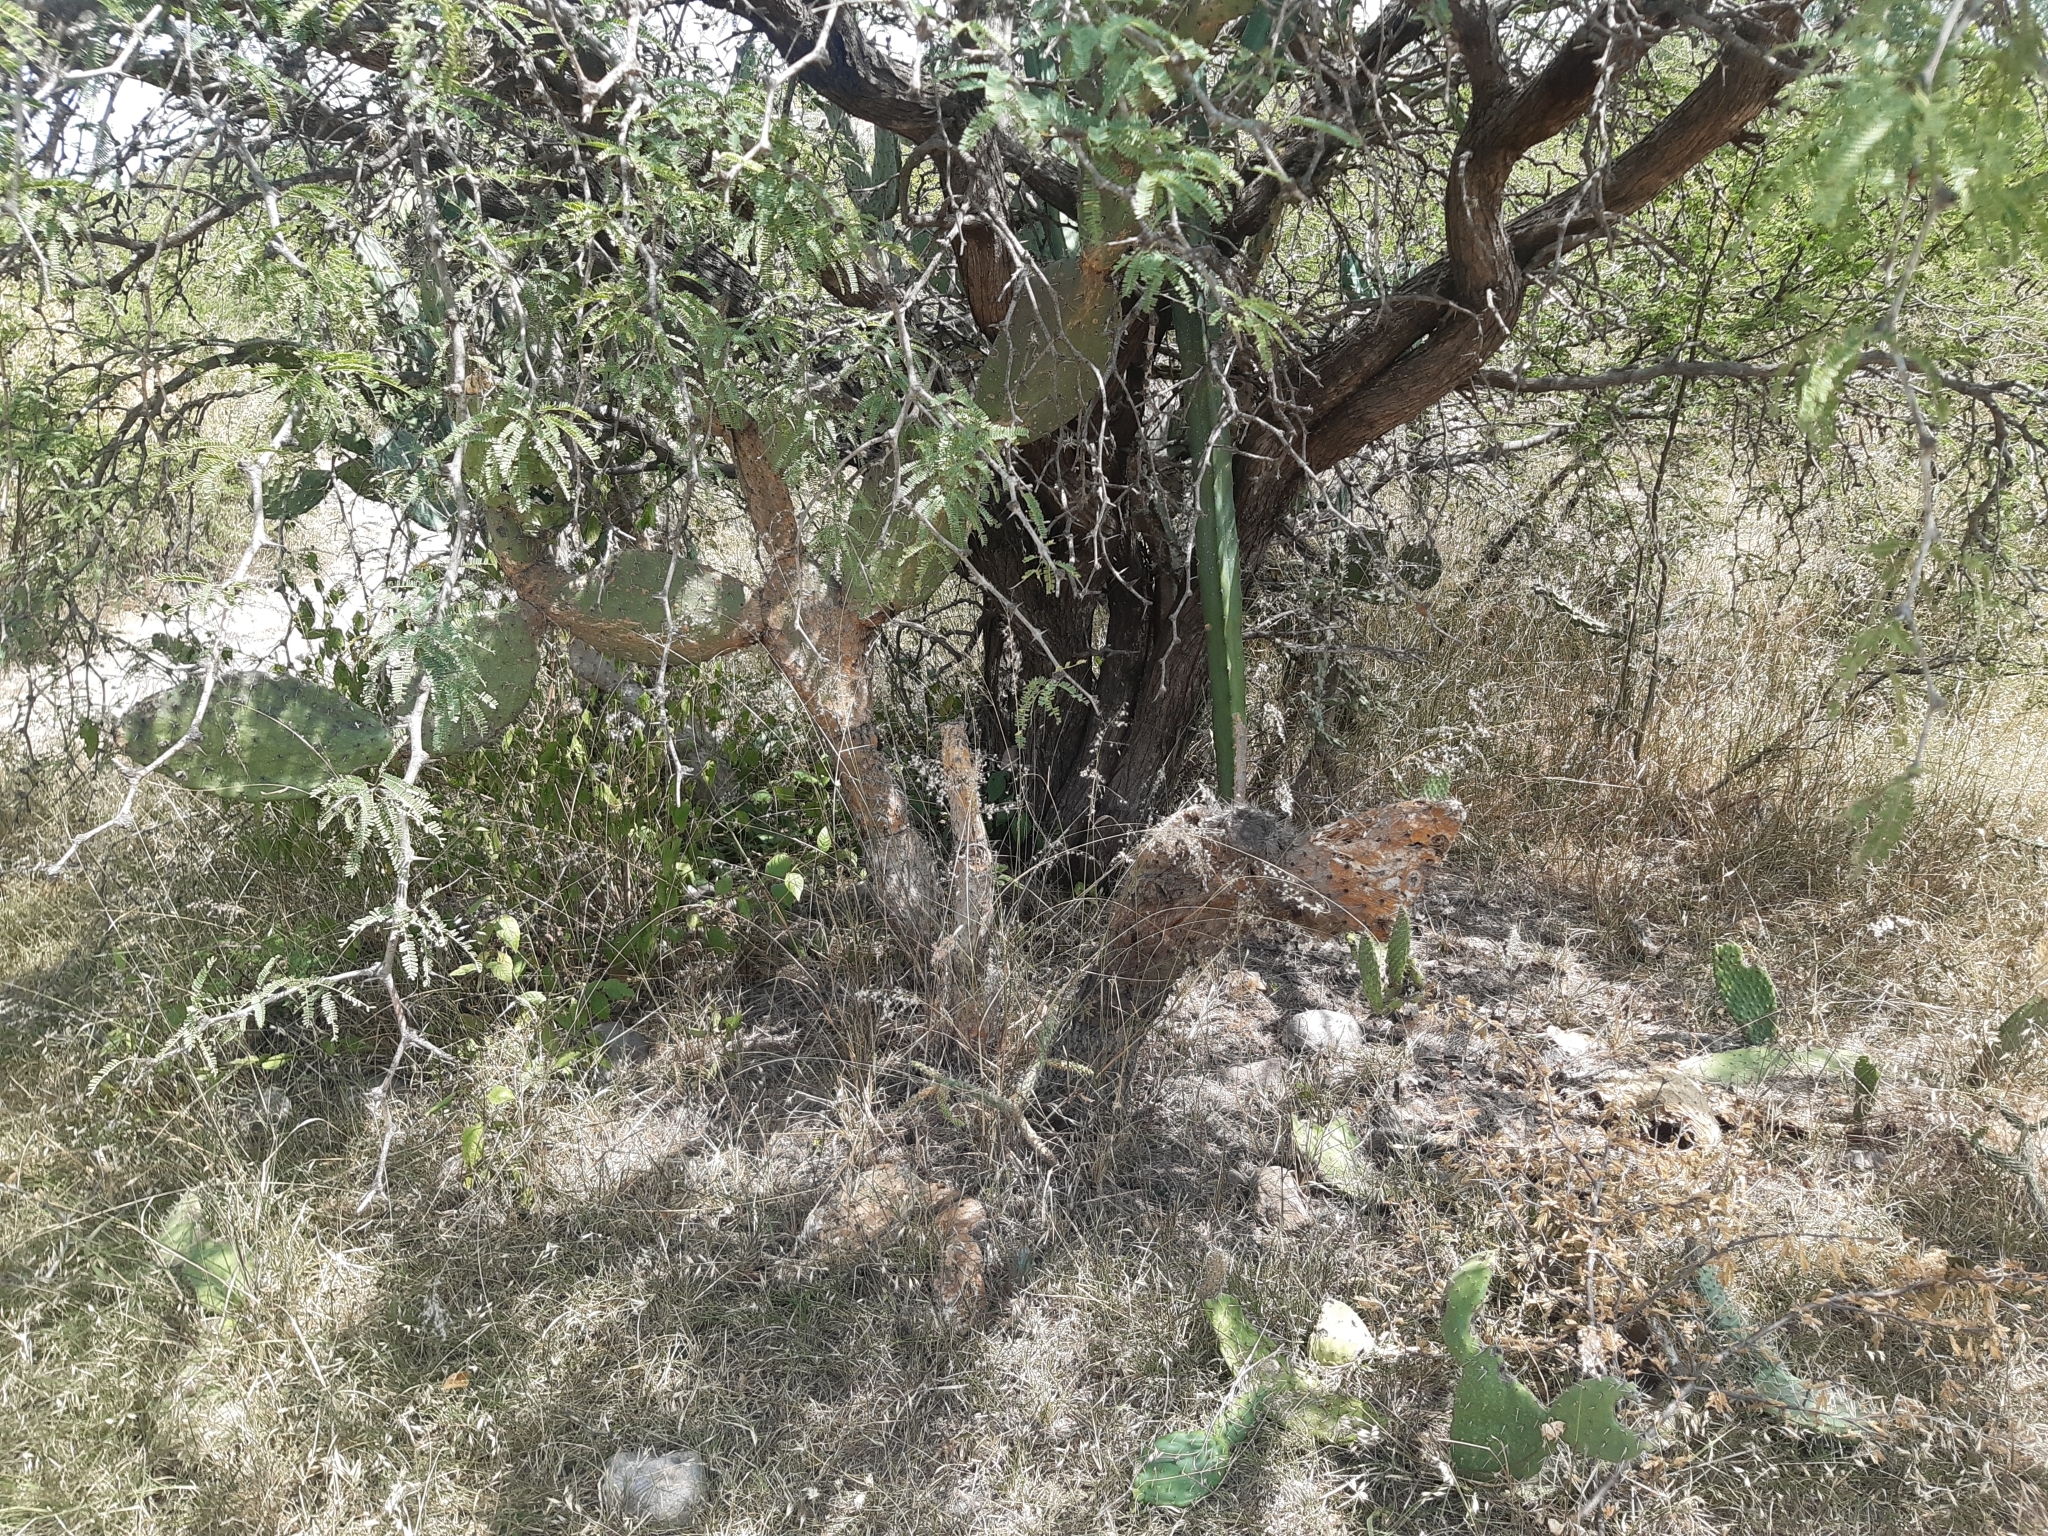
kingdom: Plantae
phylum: Tracheophyta
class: Magnoliopsida
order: Fabales
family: Fabaceae
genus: Prosopis
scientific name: Prosopis laevigata
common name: Smooth mesquite
